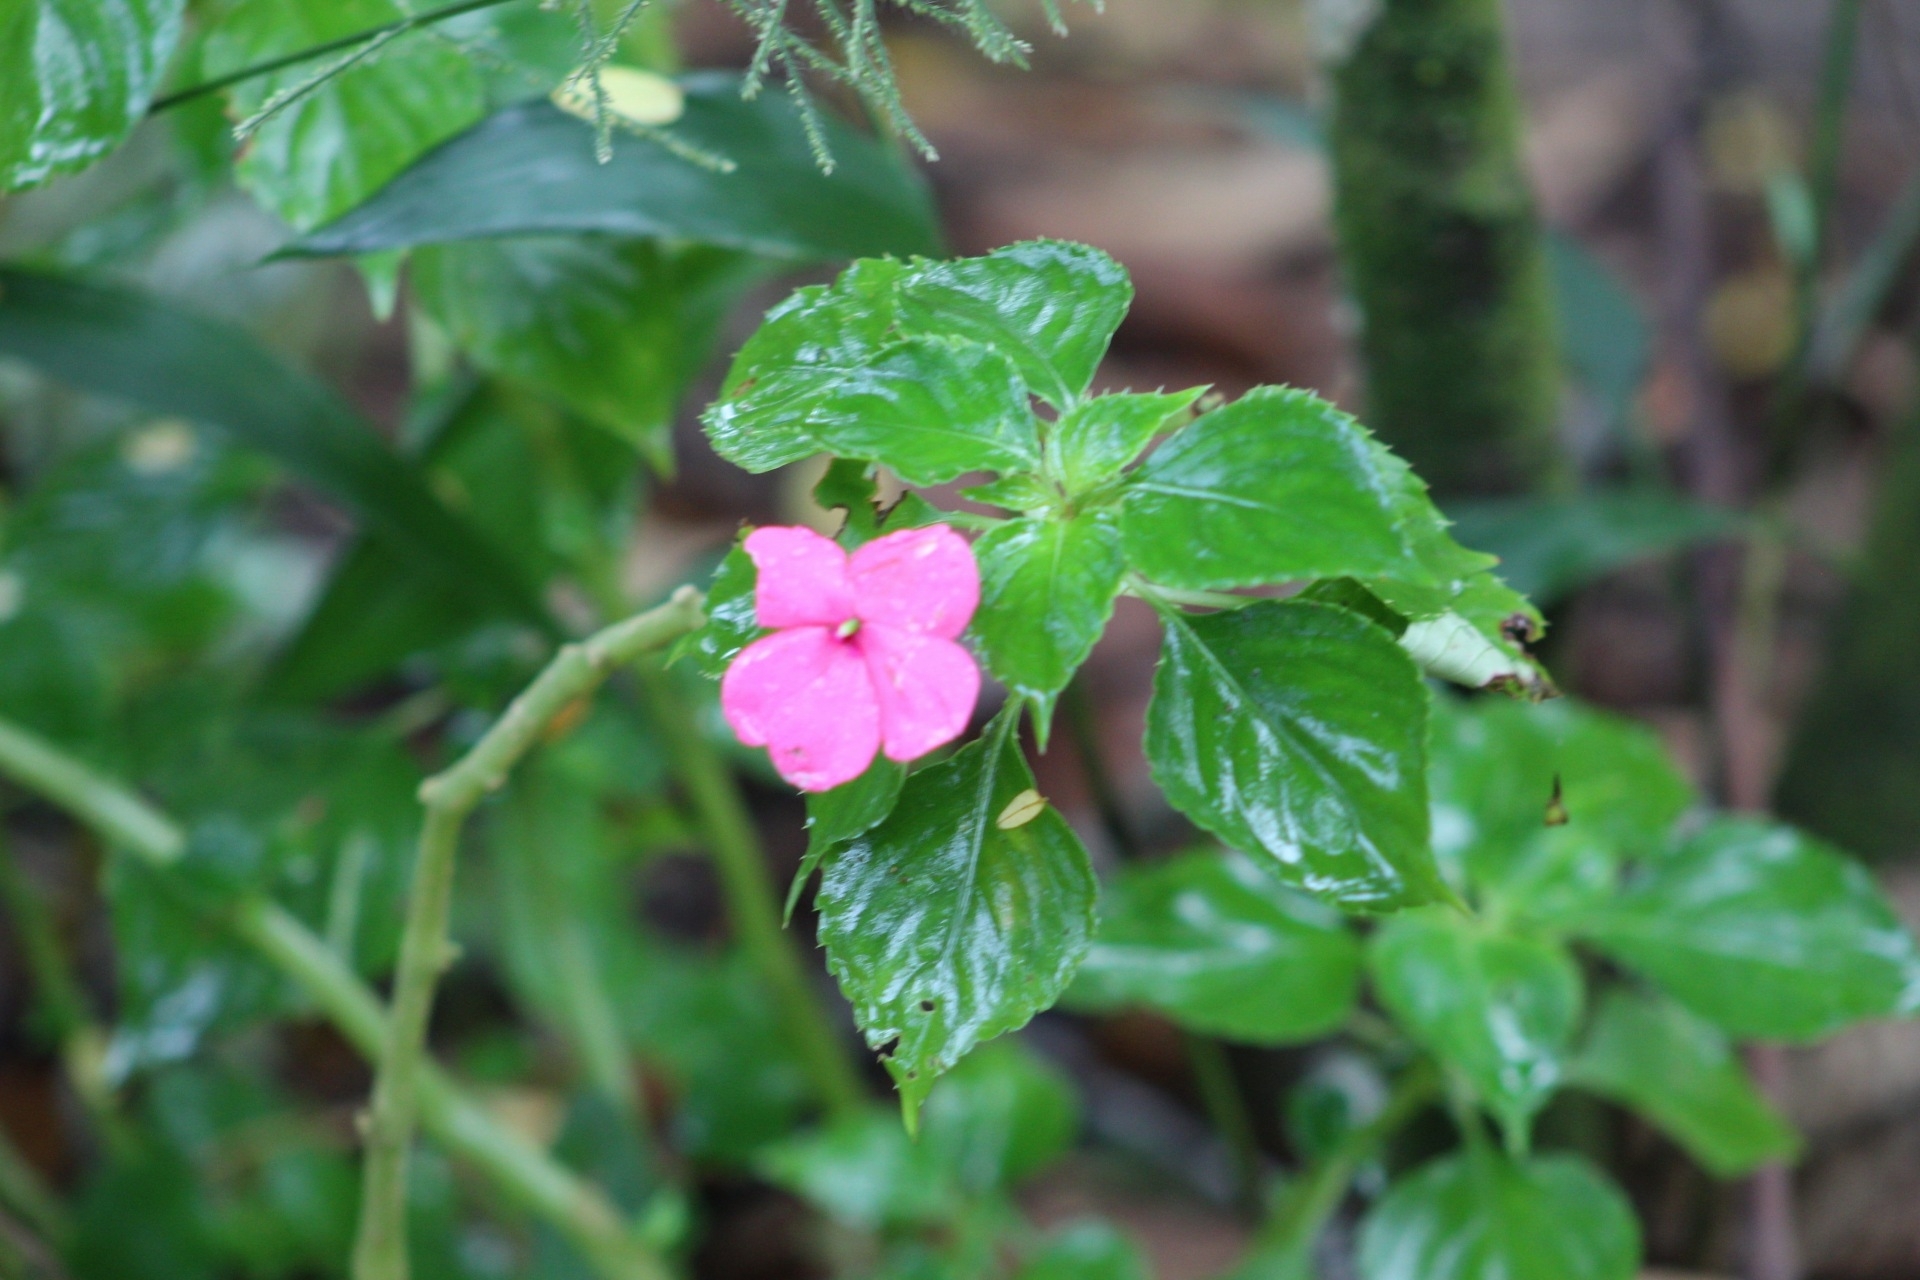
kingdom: Plantae
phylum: Tracheophyta
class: Magnoliopsida
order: Ericales
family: Balsaminaceae
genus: Impatiens
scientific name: Impatiens walleriana
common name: Buzzy lizzy
